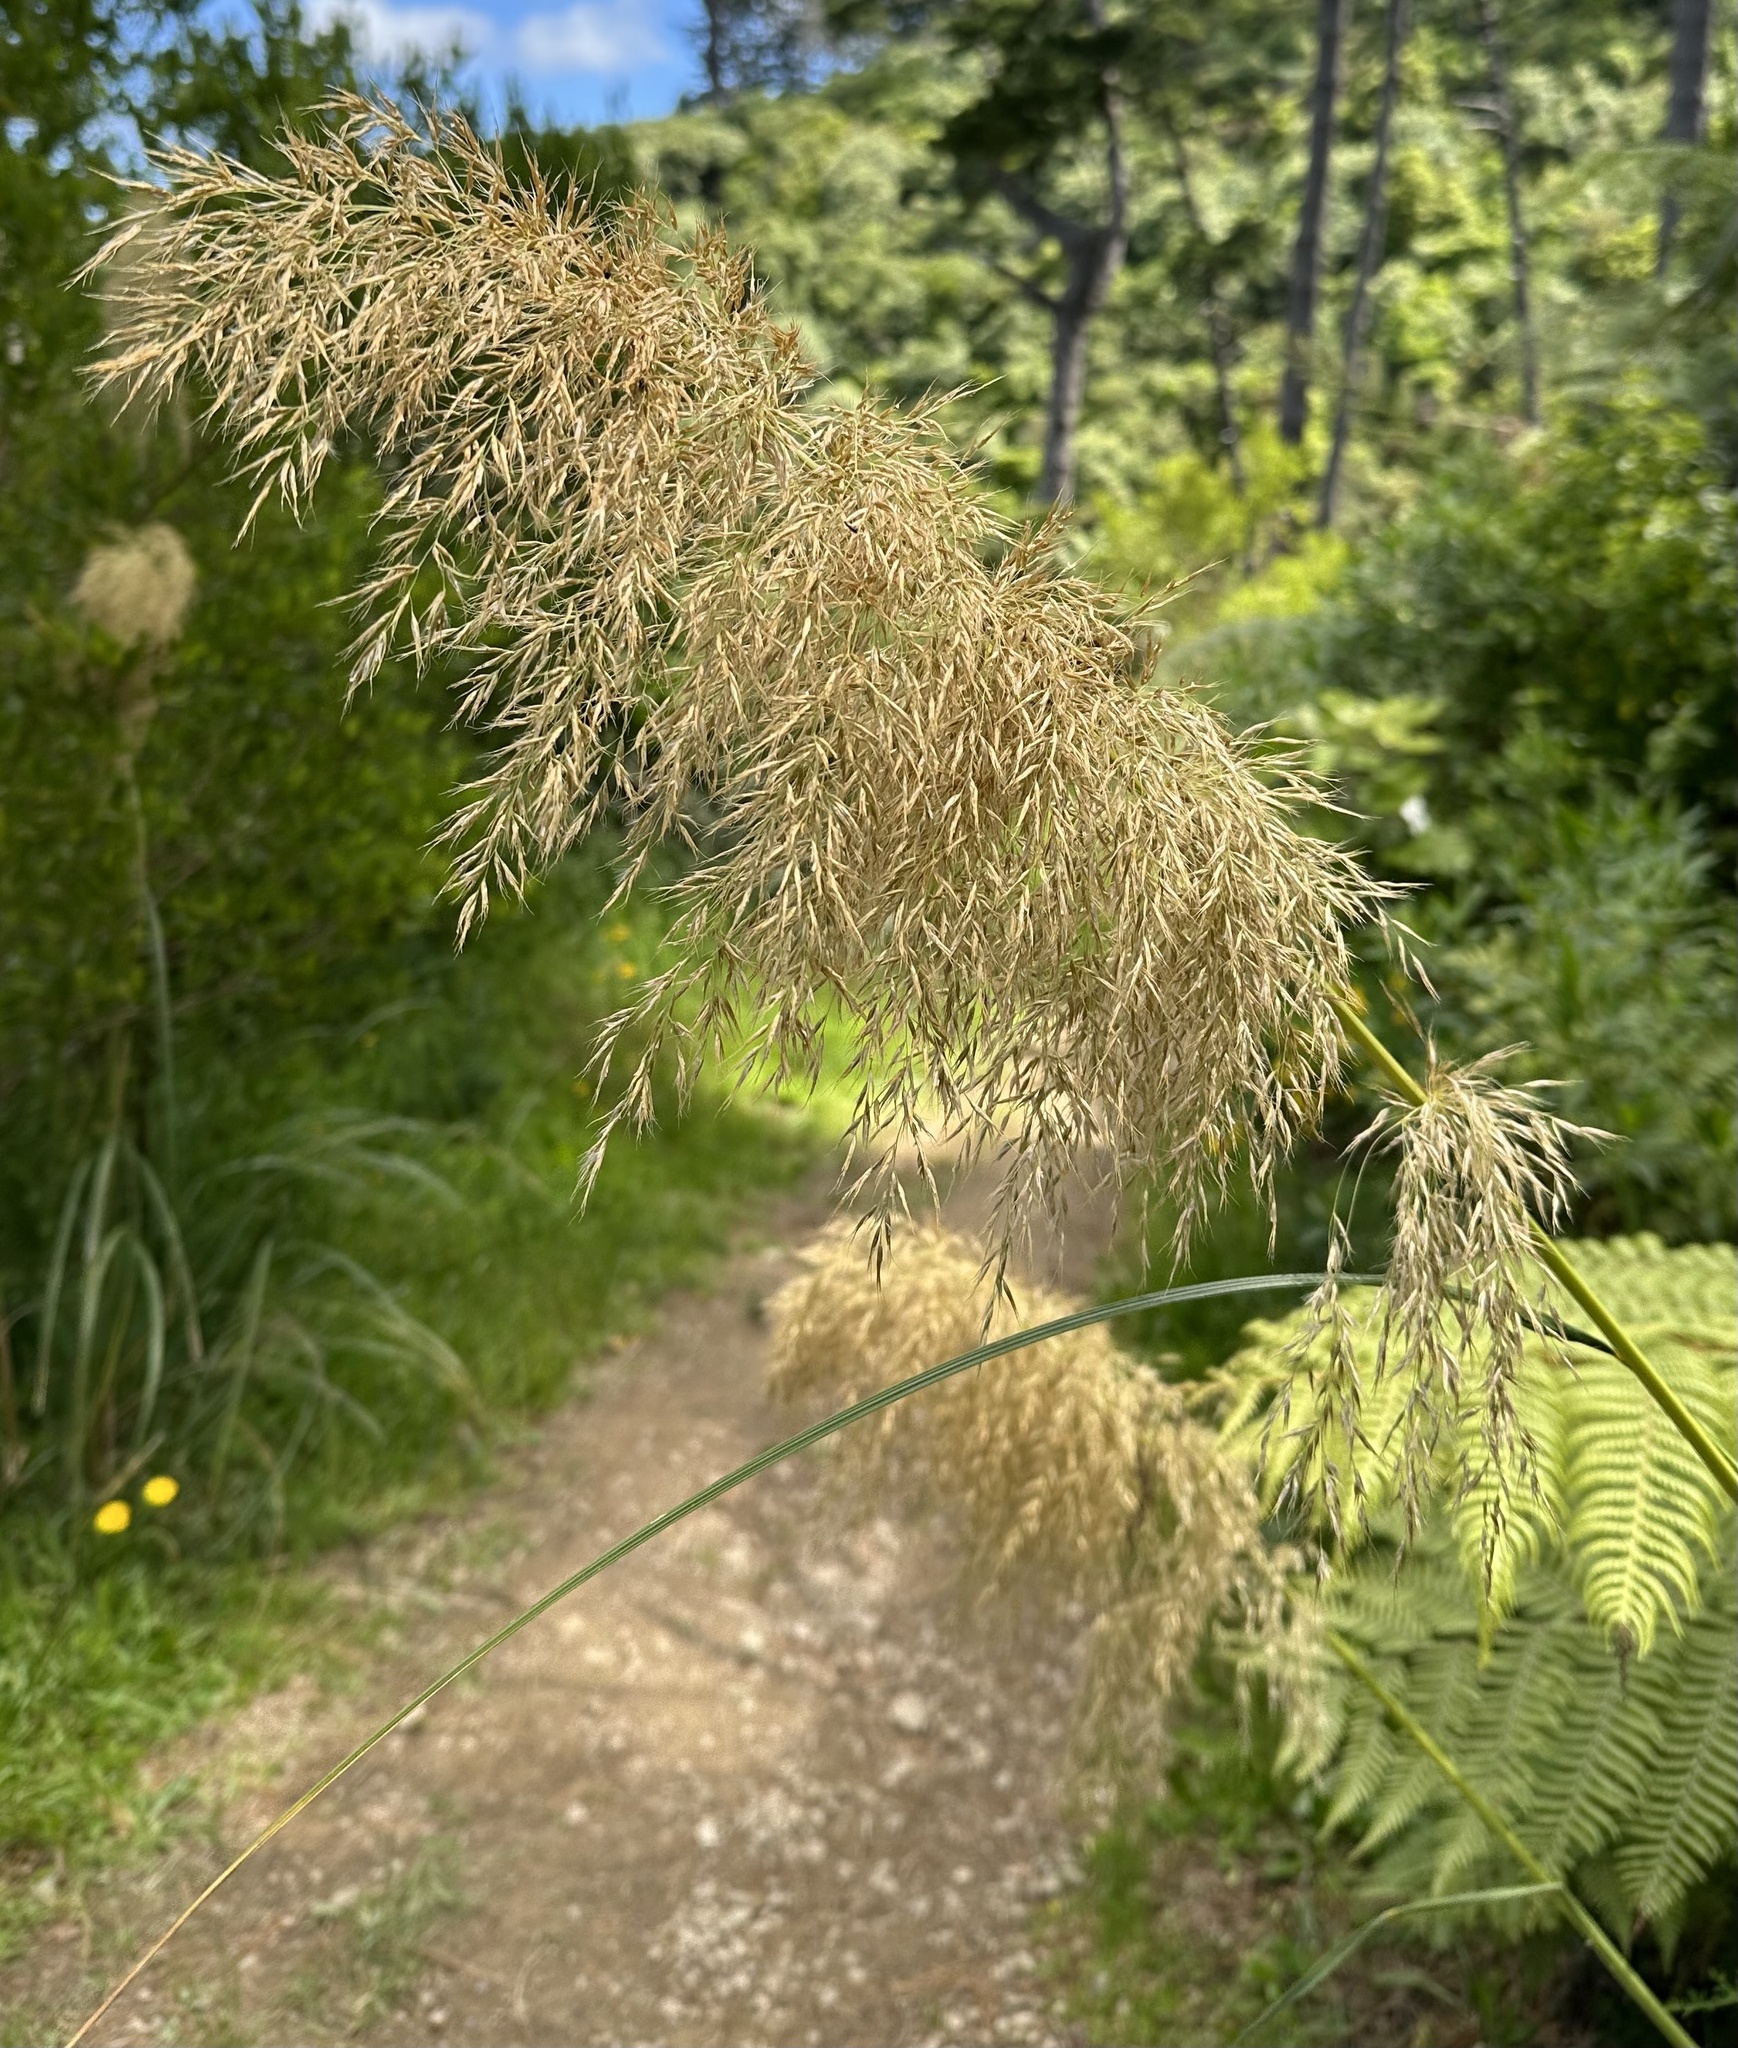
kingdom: Plantae
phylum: Tracheophyta
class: Liliopsida
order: Poales
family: Poaceae
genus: Austroderia
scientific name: Austroderia fulvida
